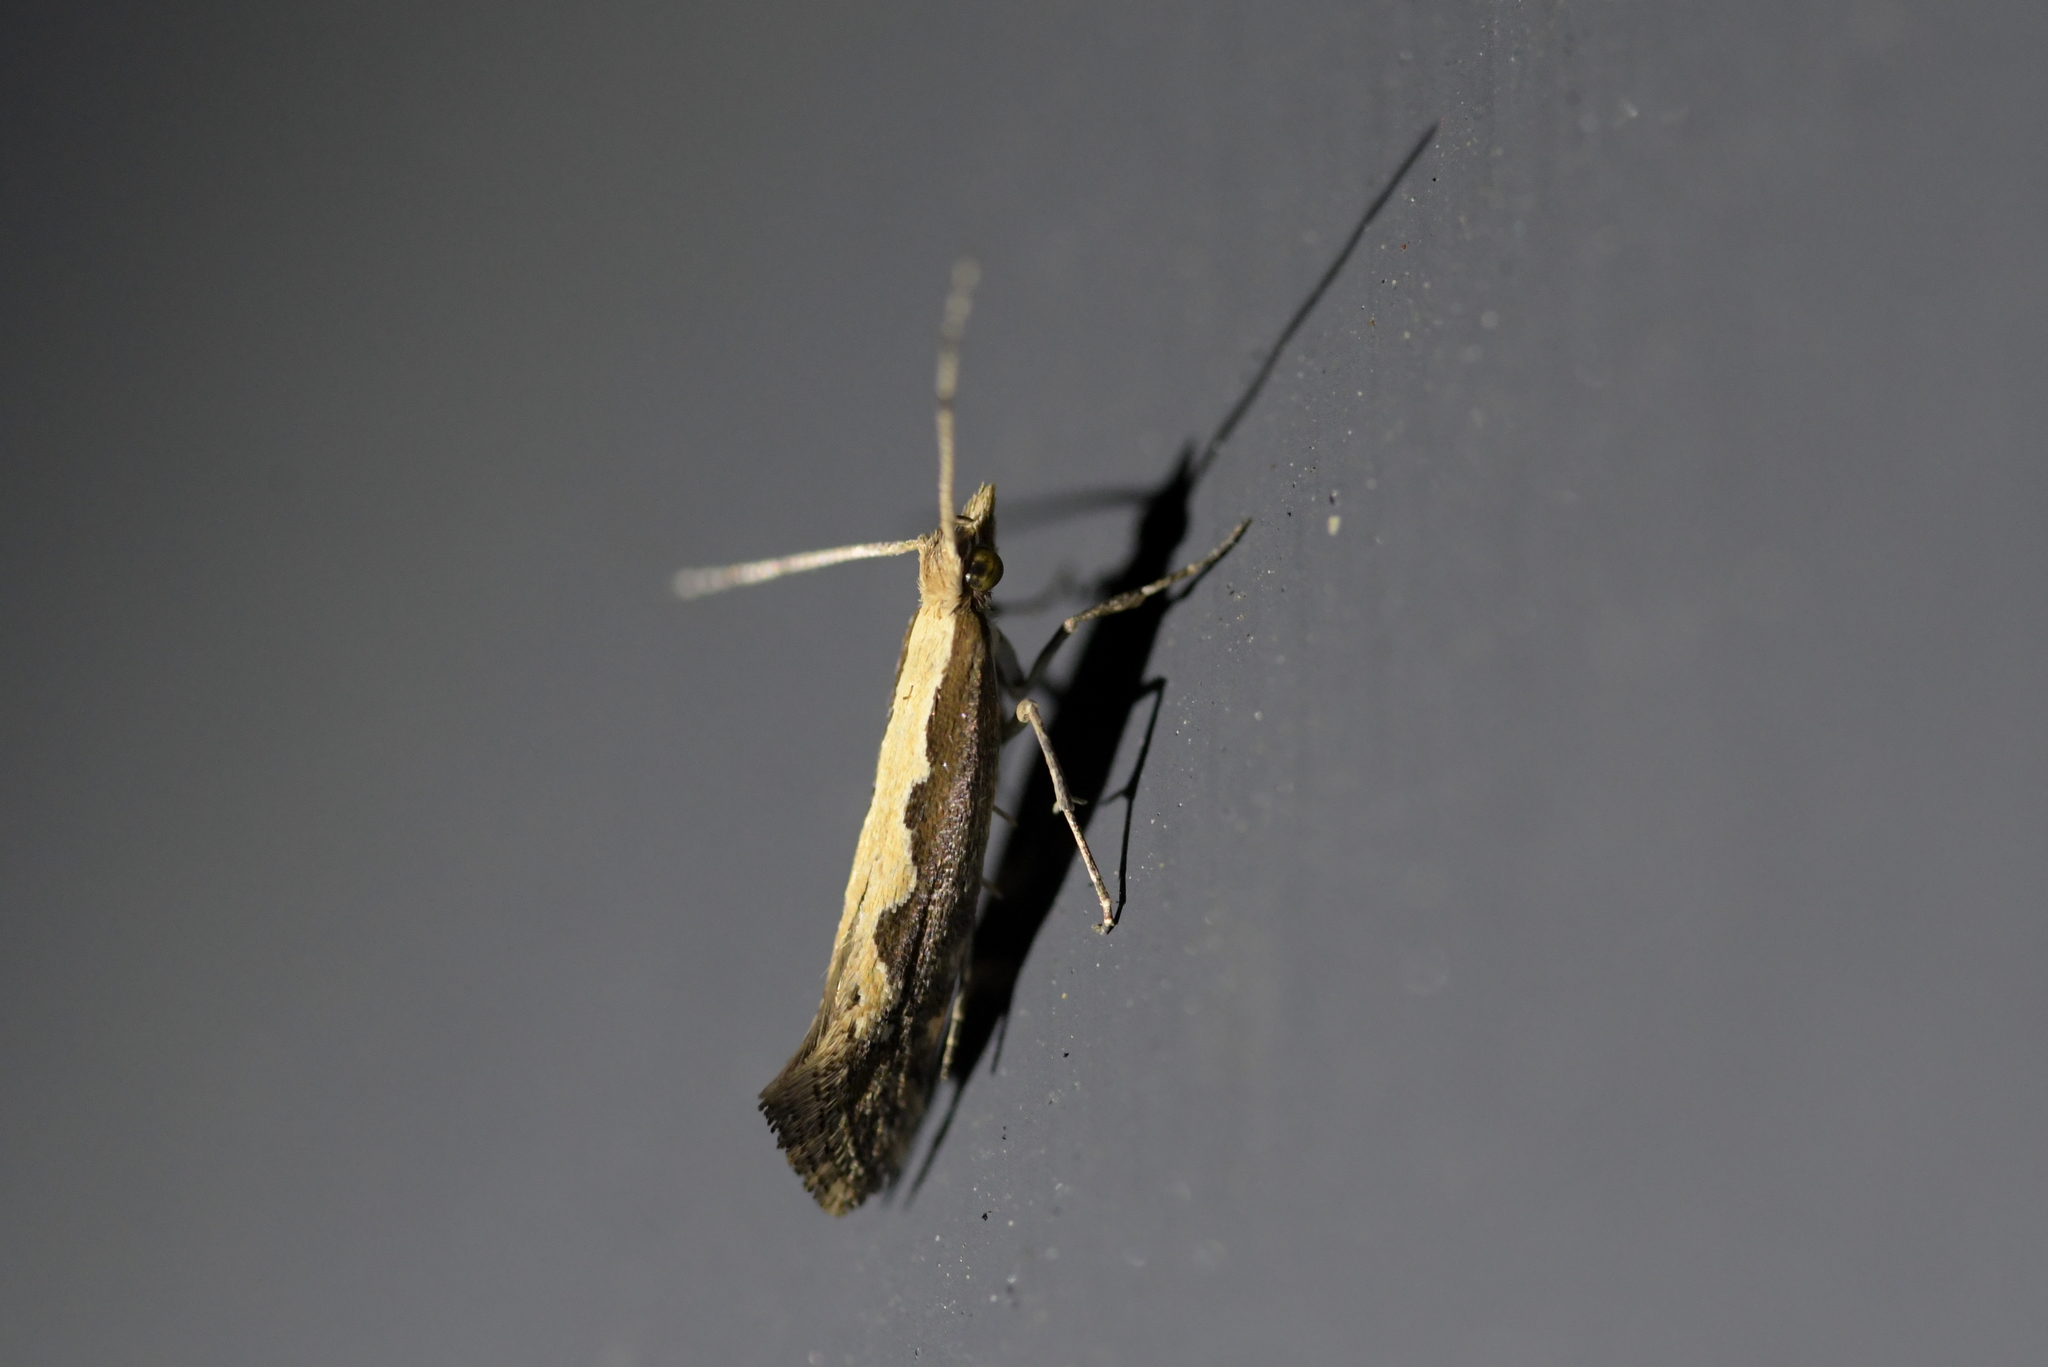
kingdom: Animalia
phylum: Arthropoda
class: Insecta
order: Lepidoptera
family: Plutellidae
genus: Plutella
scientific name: Plutella xylostella
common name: Diamond-back moth
